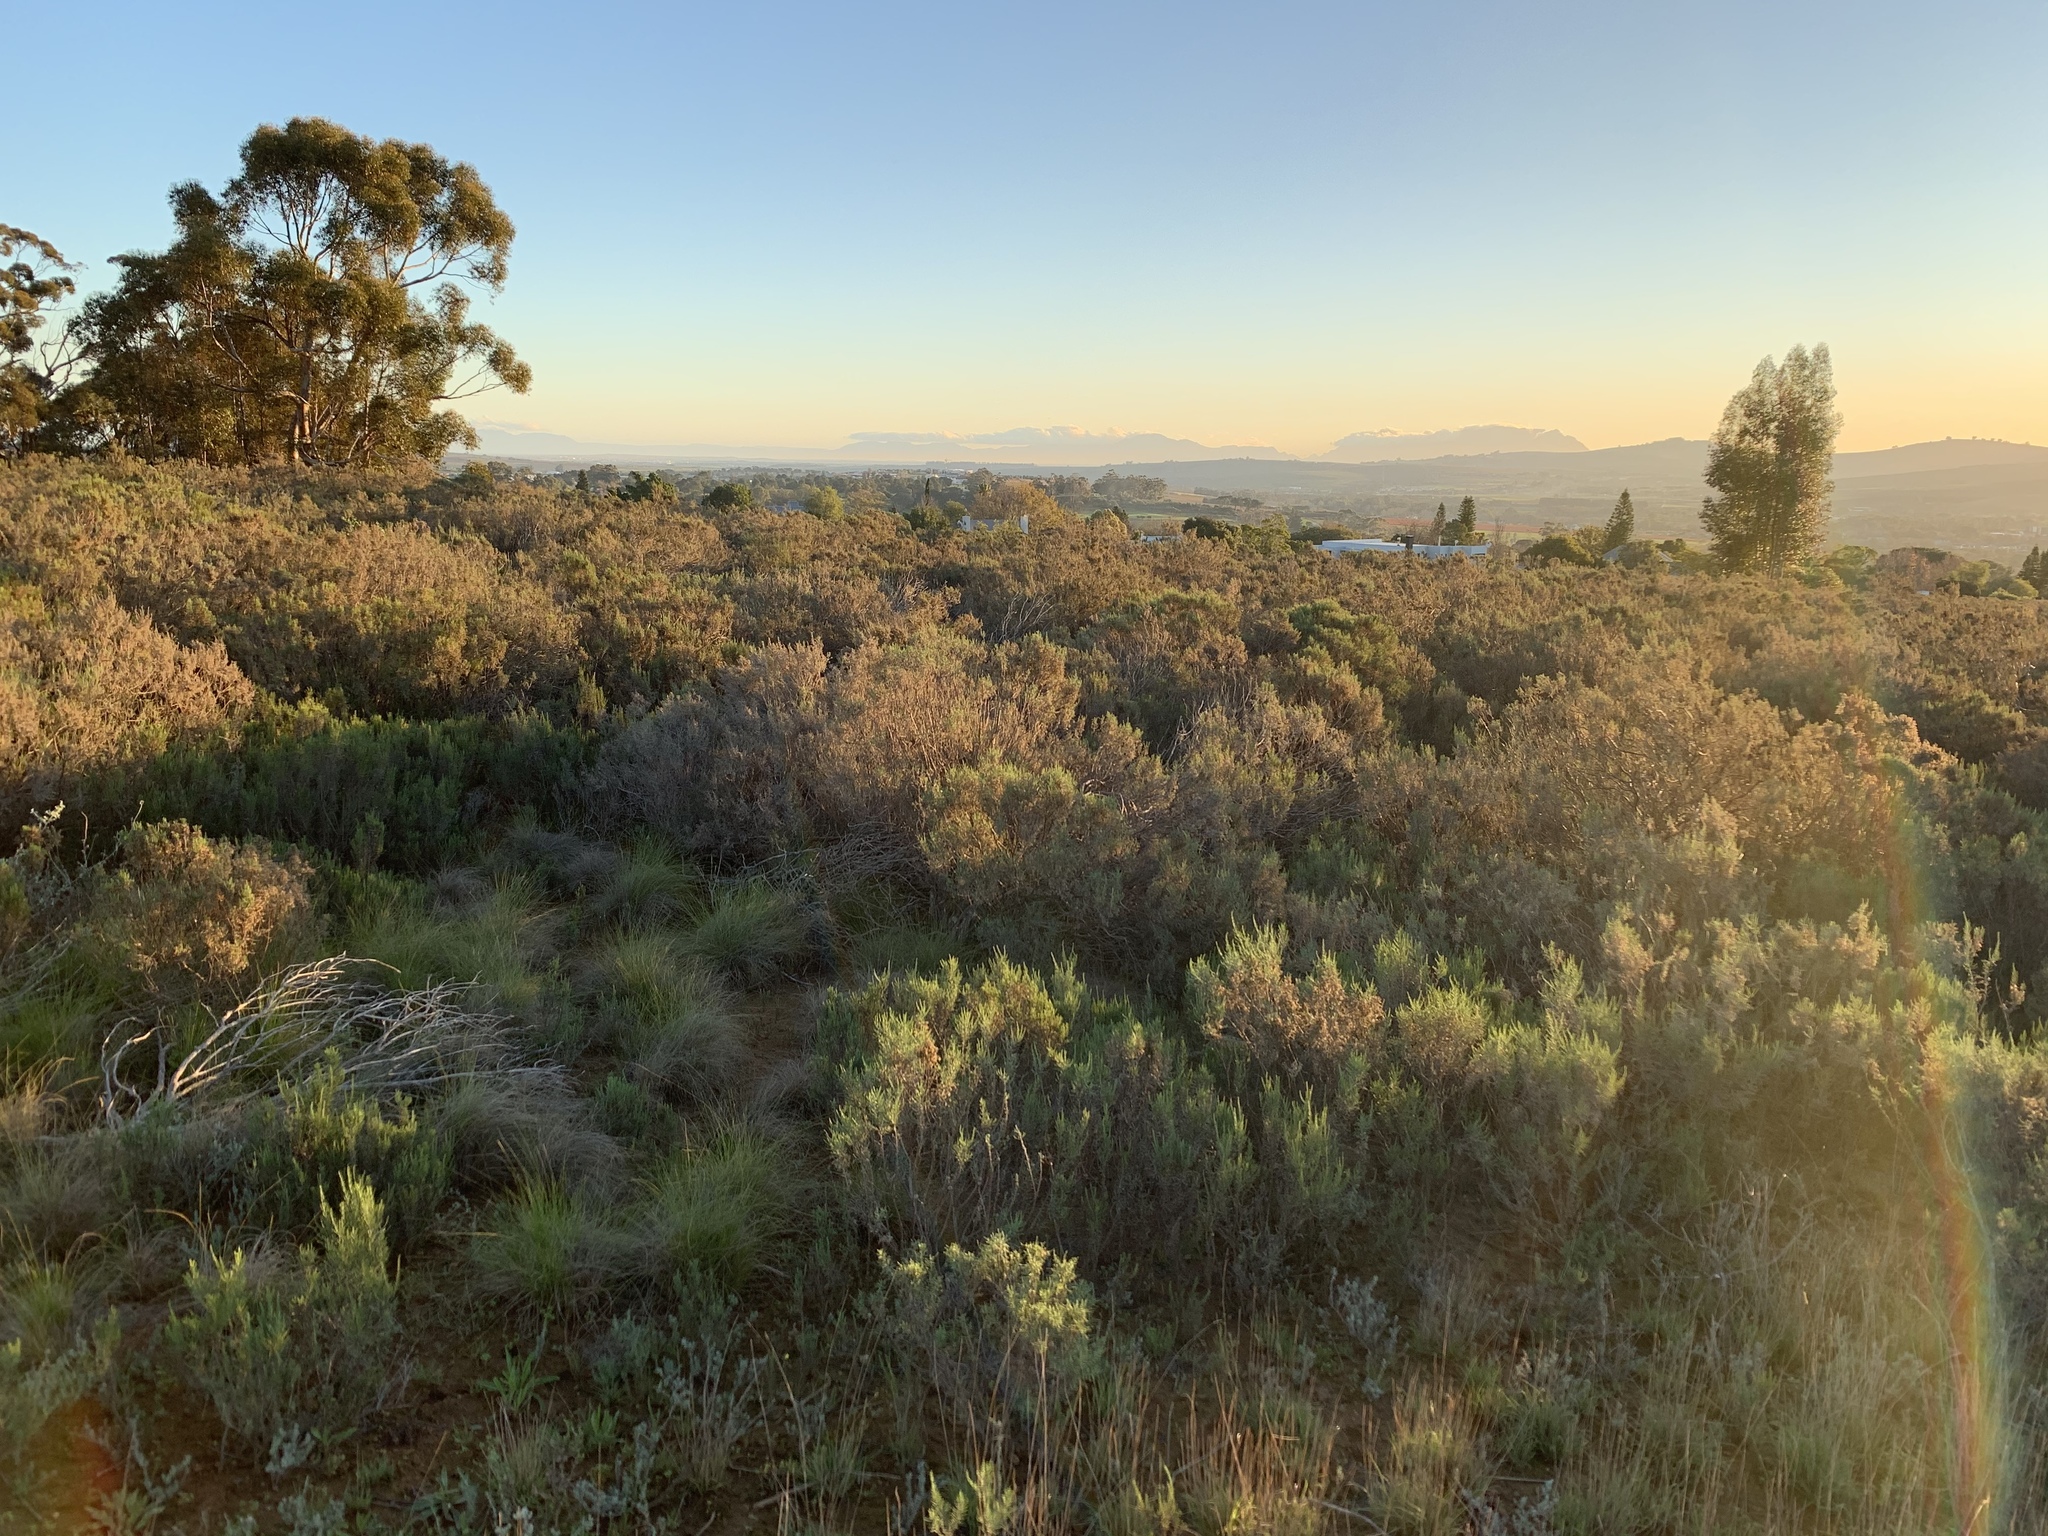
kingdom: Plantae
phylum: Tracheophyta
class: Magnoliopsida
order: Asterales
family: Asteraceae
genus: Dicerothamnus
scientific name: Dicerothamnus rhinocerotis
